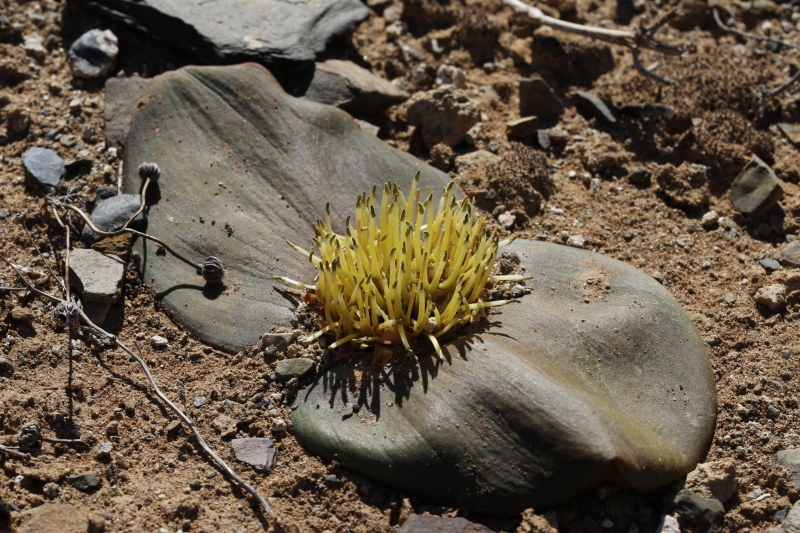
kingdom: Plantae
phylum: Tracheophyta
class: Liliopsida
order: Asparagales
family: Asparagaceae
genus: Massonia
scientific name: Massonia depressa
